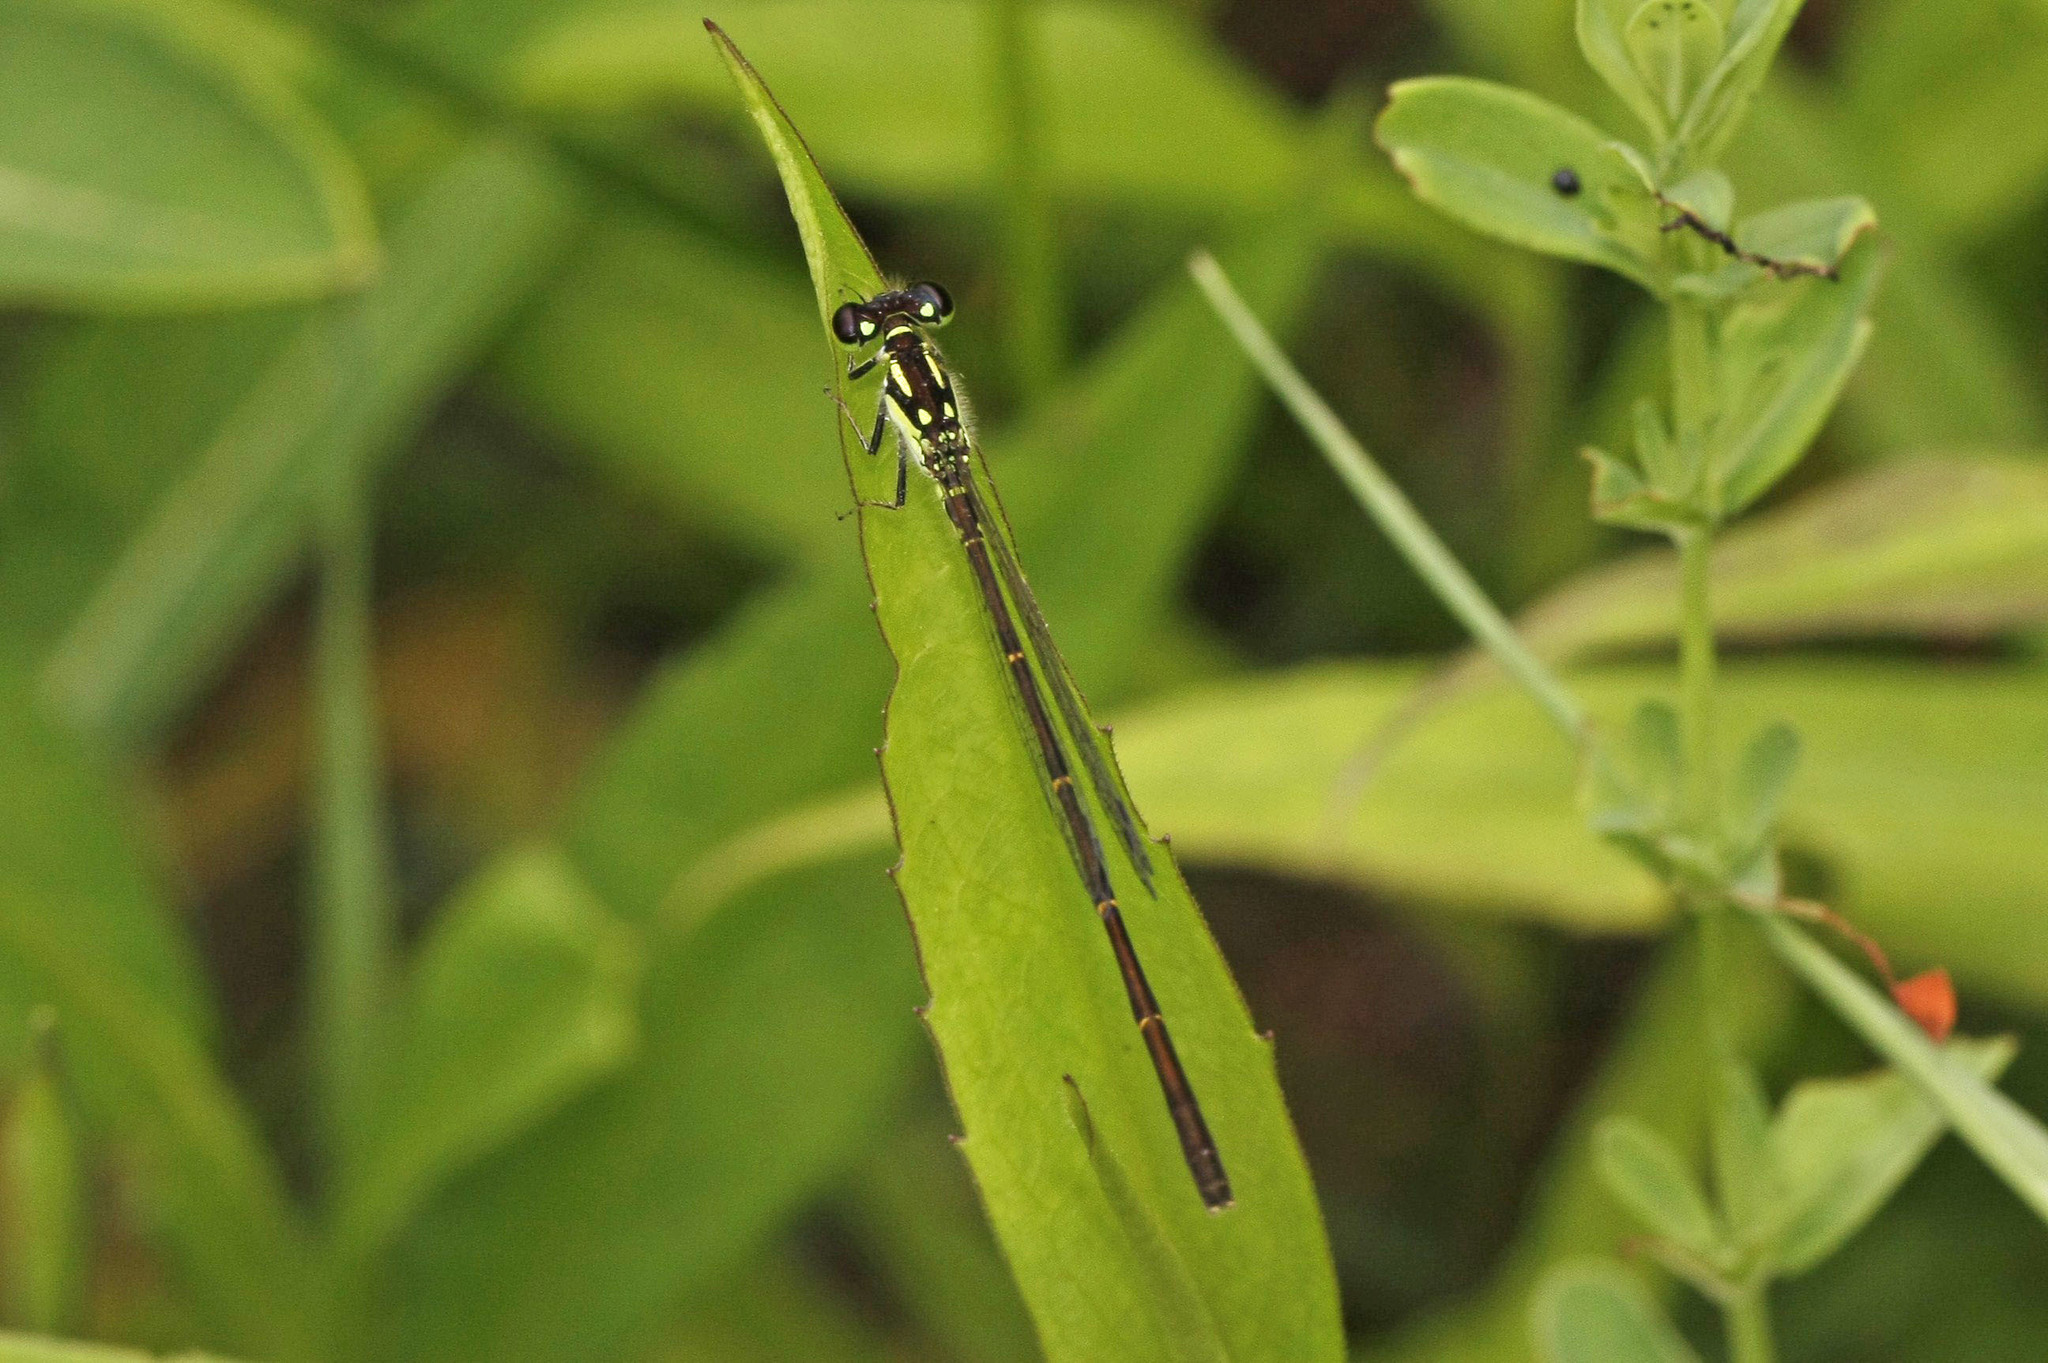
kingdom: Animalia
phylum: Arthropoda
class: Insecta
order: Odonata
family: Coenagrionidae
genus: Ischnura
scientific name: Ischnura posita
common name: Fragile forktail
